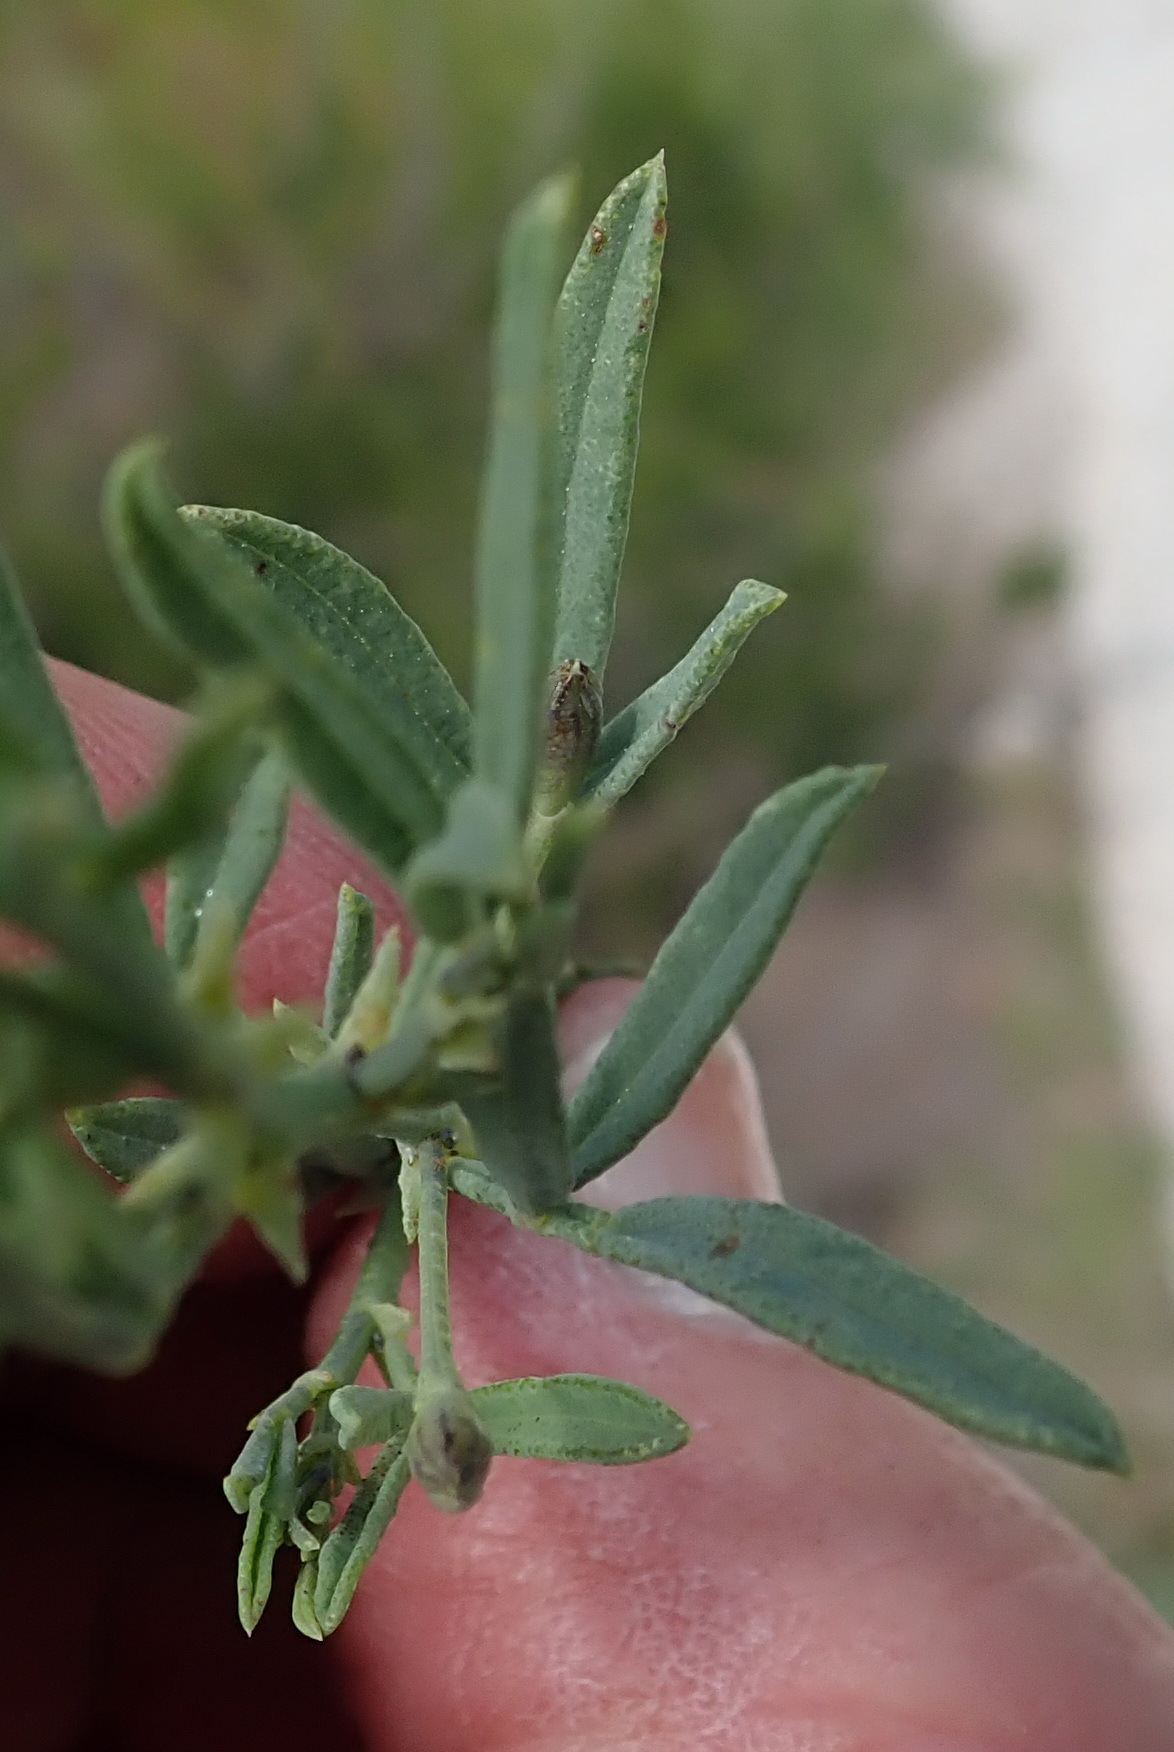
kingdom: Plantae
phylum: Tracheophyta
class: Magnoliopsida
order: Fabales
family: Fabaceae
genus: Psoralea
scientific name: Psoralea axillaris
